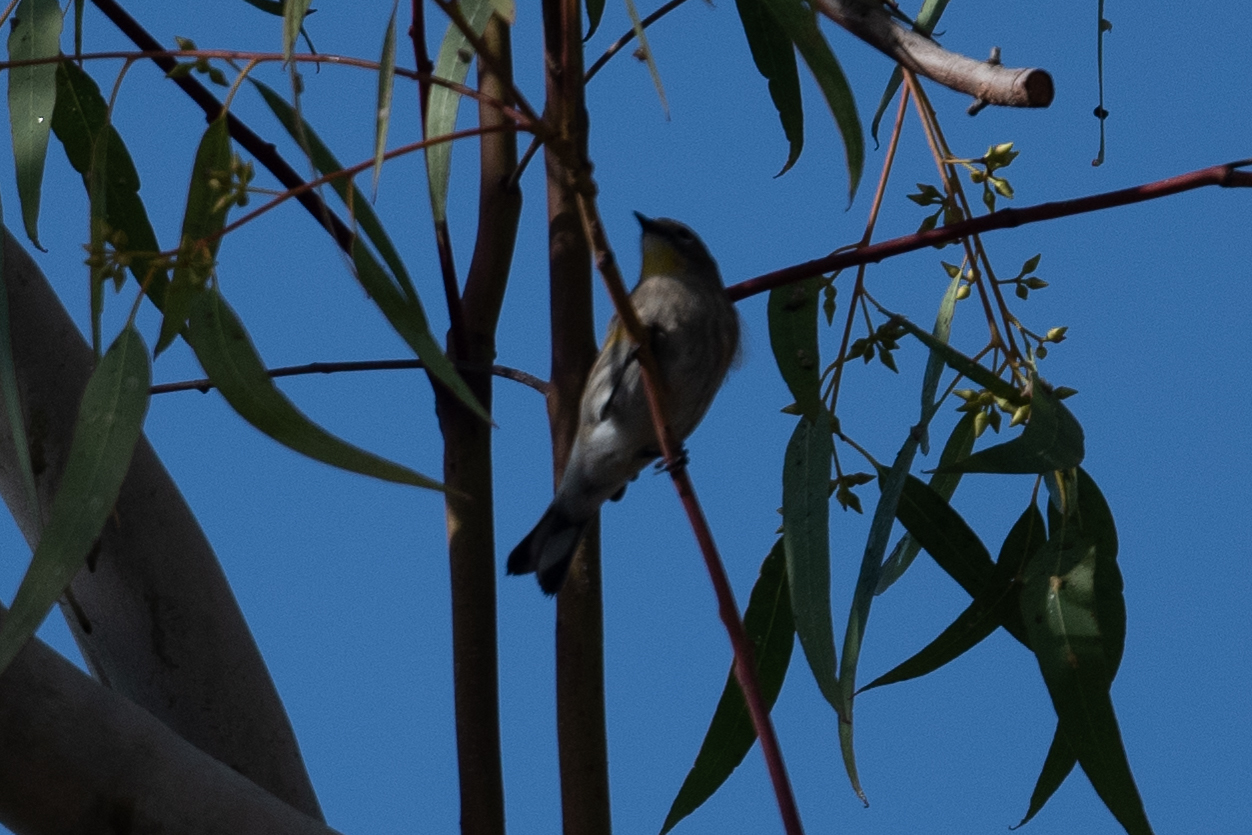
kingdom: Animalia
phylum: Chordata
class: Aves
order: Passeriformes
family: Parulidae
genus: Setophaga
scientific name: Setophaga coronata
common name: Myrtle warbler
